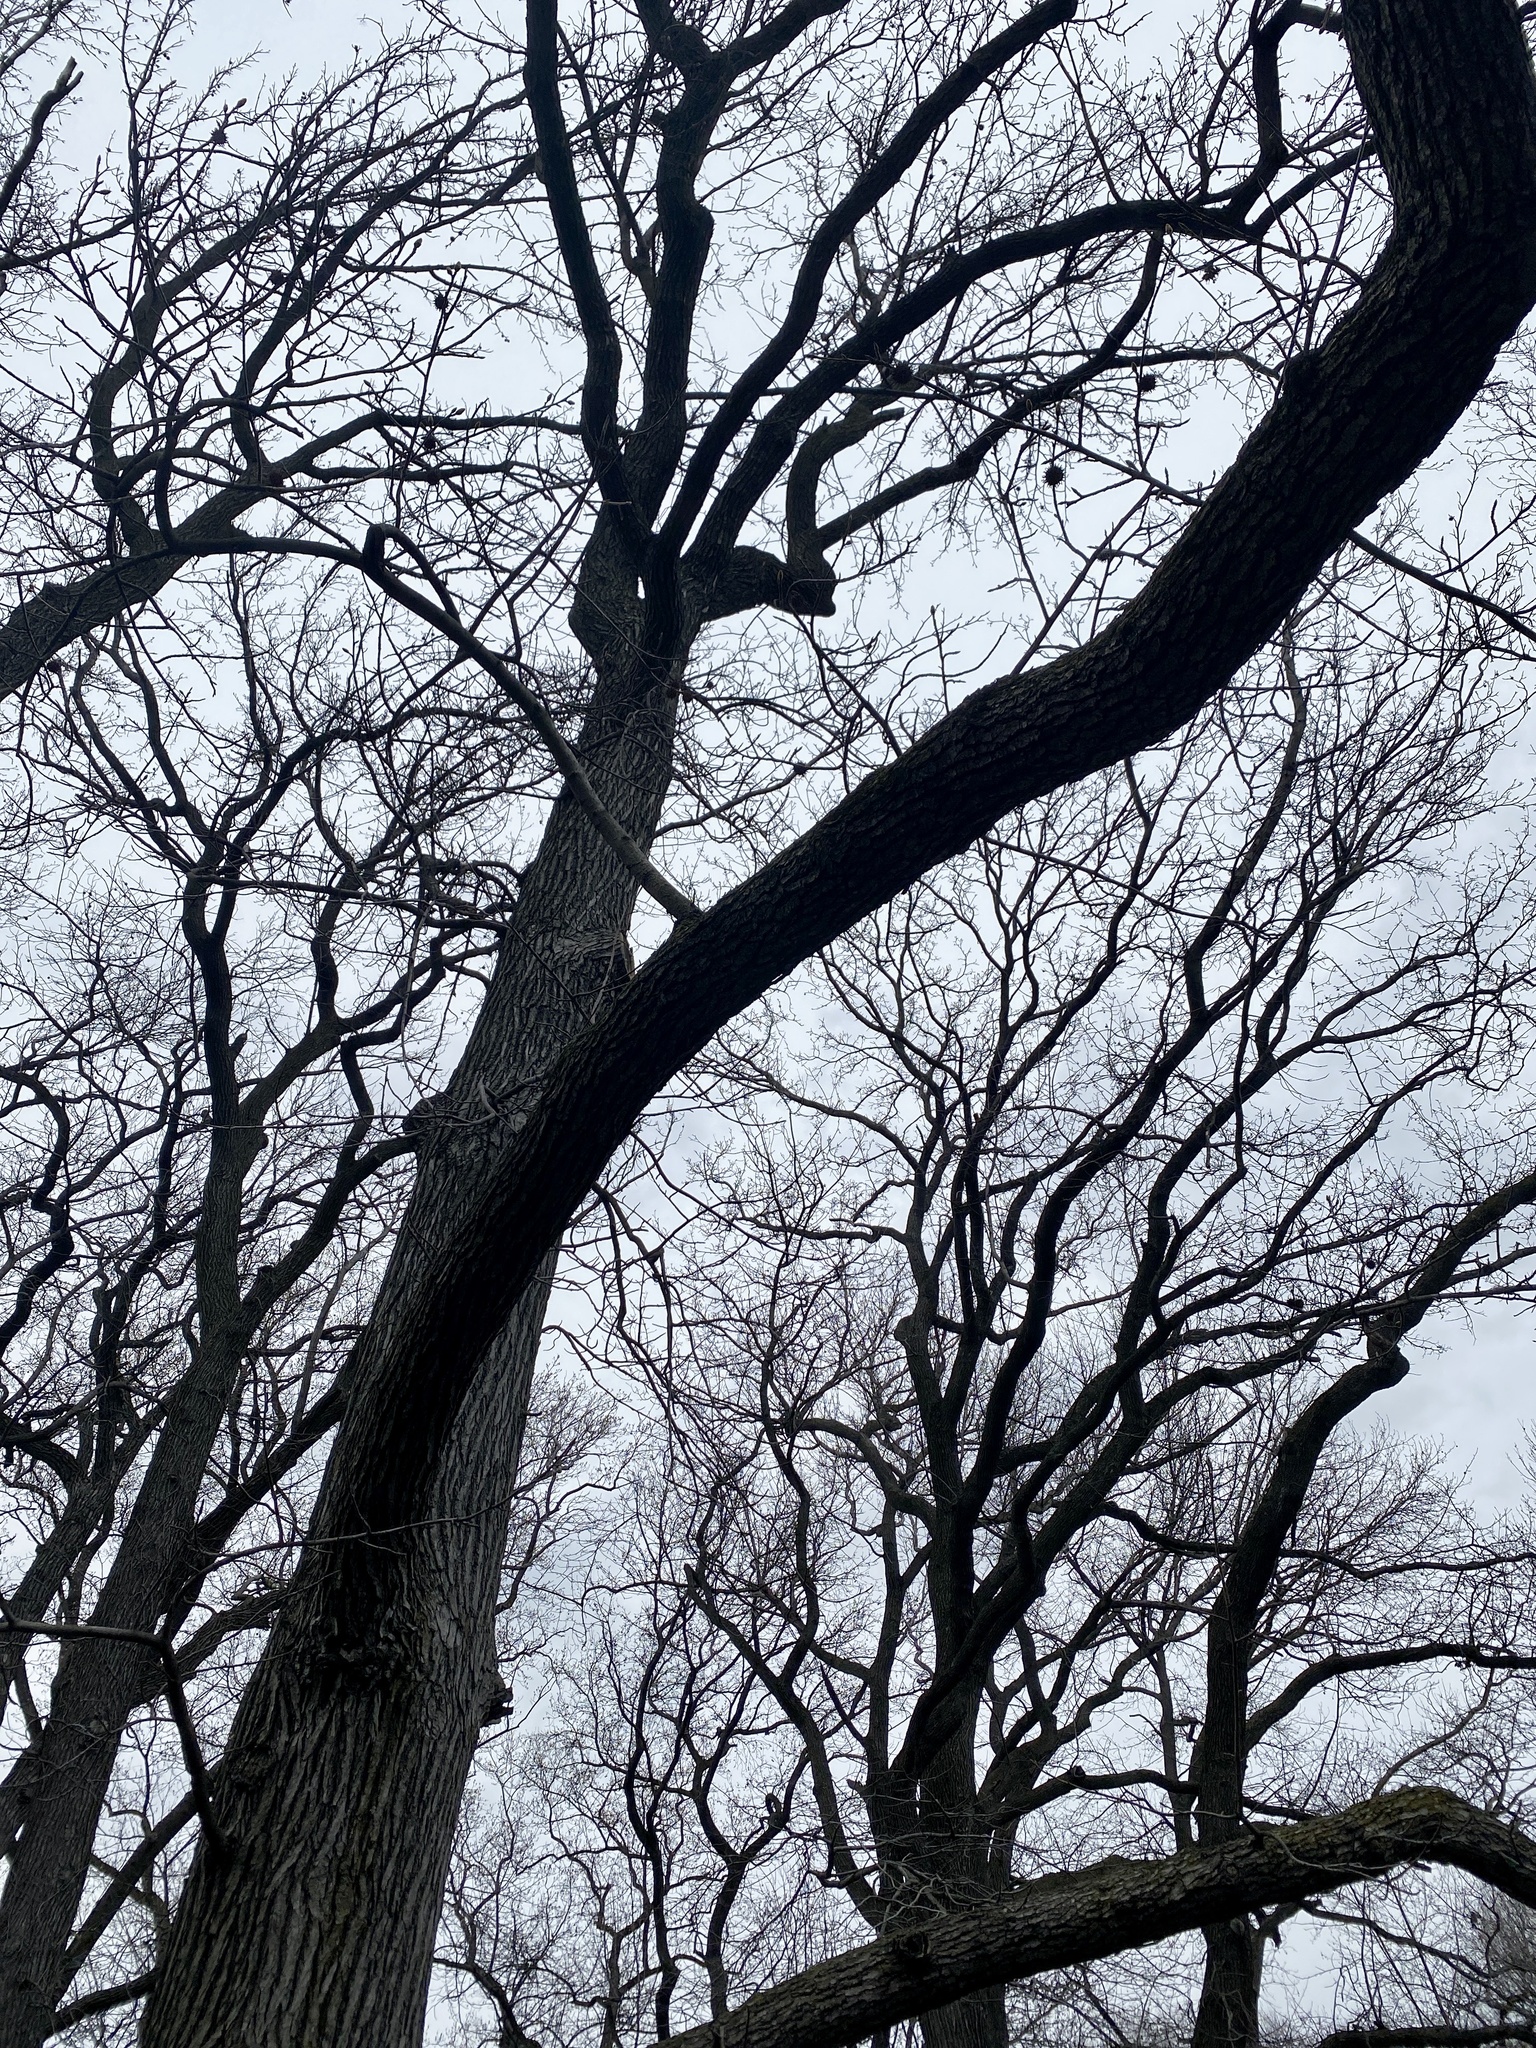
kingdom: Plantae
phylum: Tracheophyta
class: Magnoliopsida
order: Saxifragales
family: Altingiaceae
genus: Liquidambar
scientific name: Liquidambar styraciflua
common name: Sweet gum
